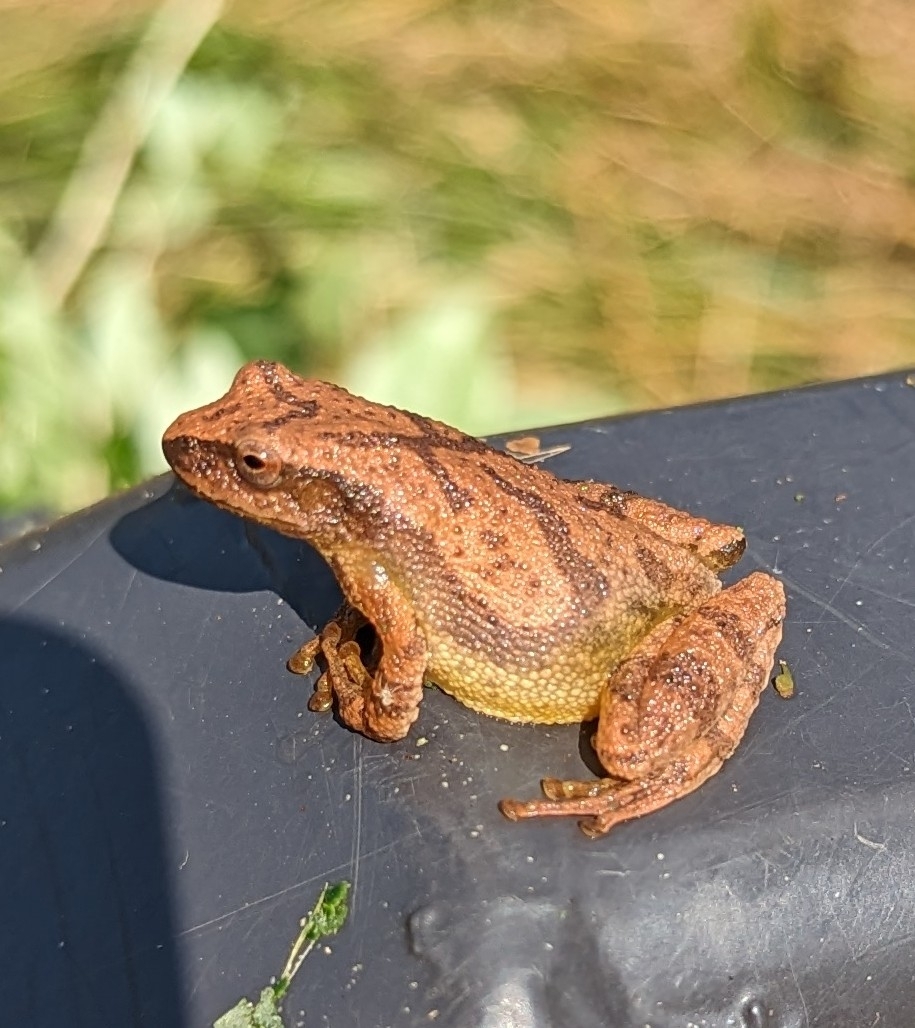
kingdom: Animalia
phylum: Chordata
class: Amphibia
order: Anura
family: Hylidae
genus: Pseudacris
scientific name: Pseudacris crucifer
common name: Spring peeper
